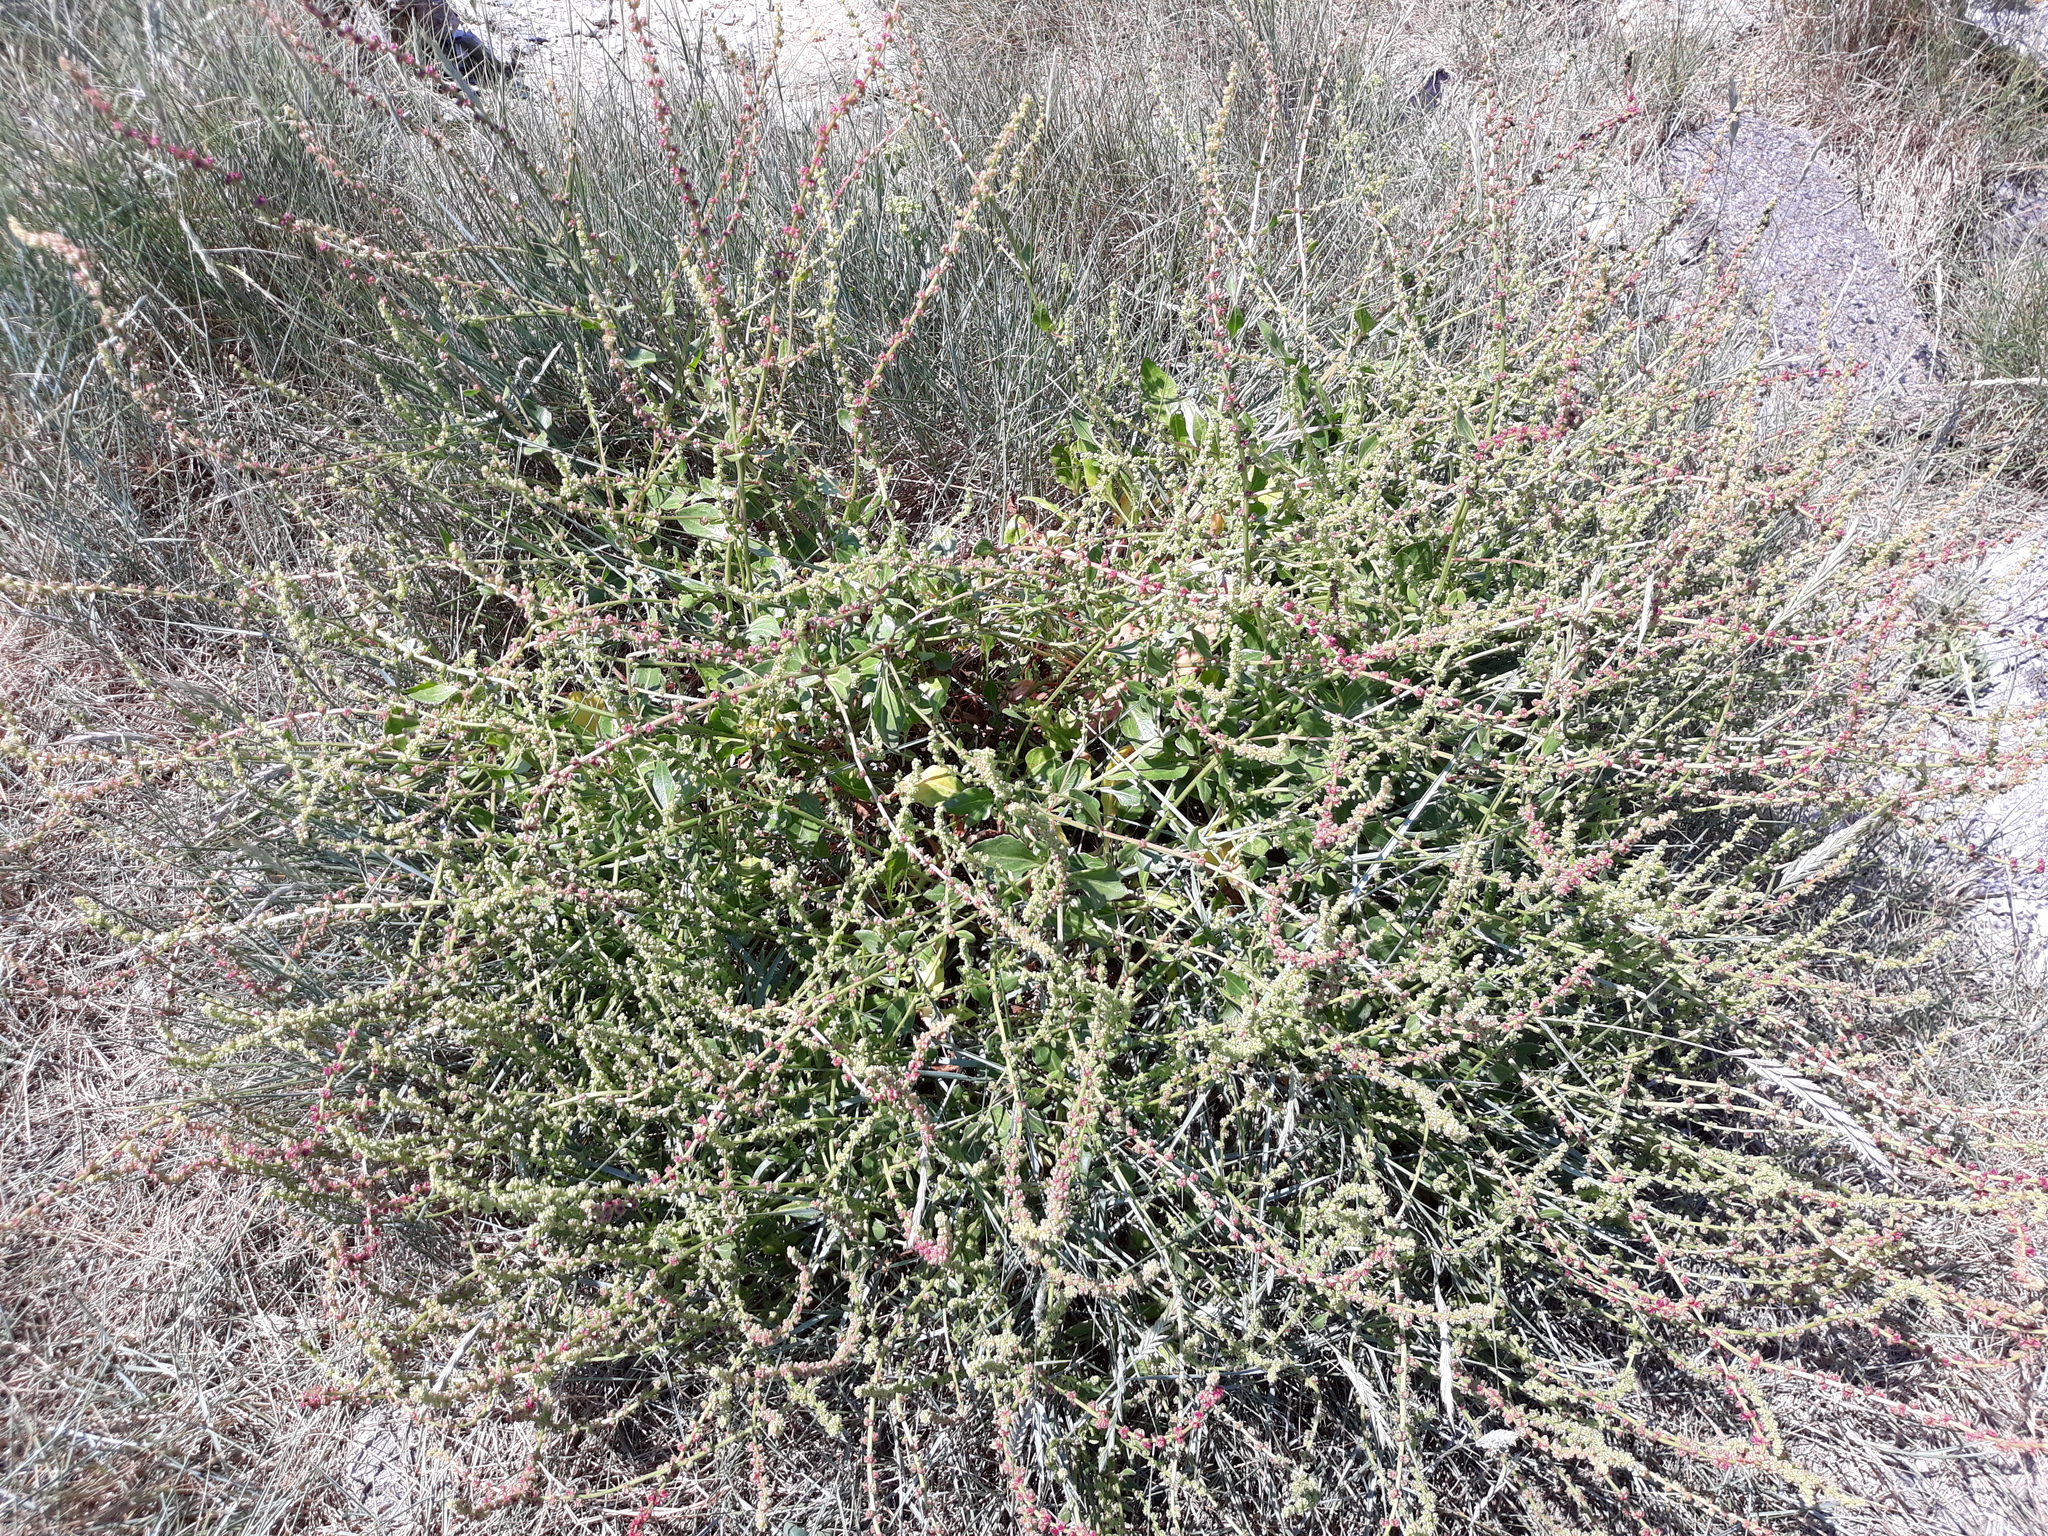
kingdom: Plantae
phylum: Tracheophyta
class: Magnoliopsida
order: Caryophyllales
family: Amaranthaceae
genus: Beta
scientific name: Beta vulgaris
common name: Beet
